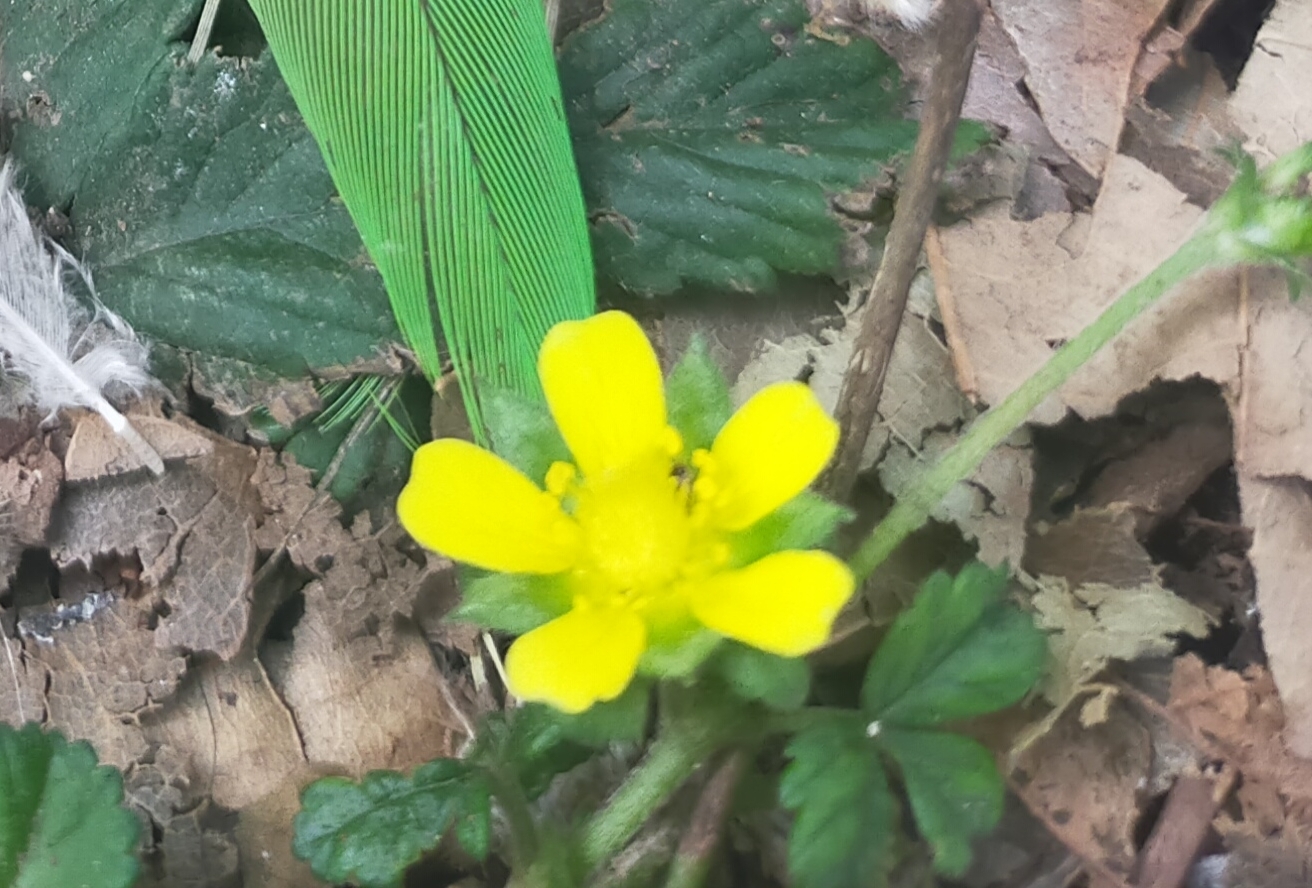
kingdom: Plantae
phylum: Tracheophyta
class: Magnoliopsida
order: Rosales
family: Rosaceae
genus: Potentilla
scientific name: Potentilla indica
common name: Yellow-flowered strawberry
